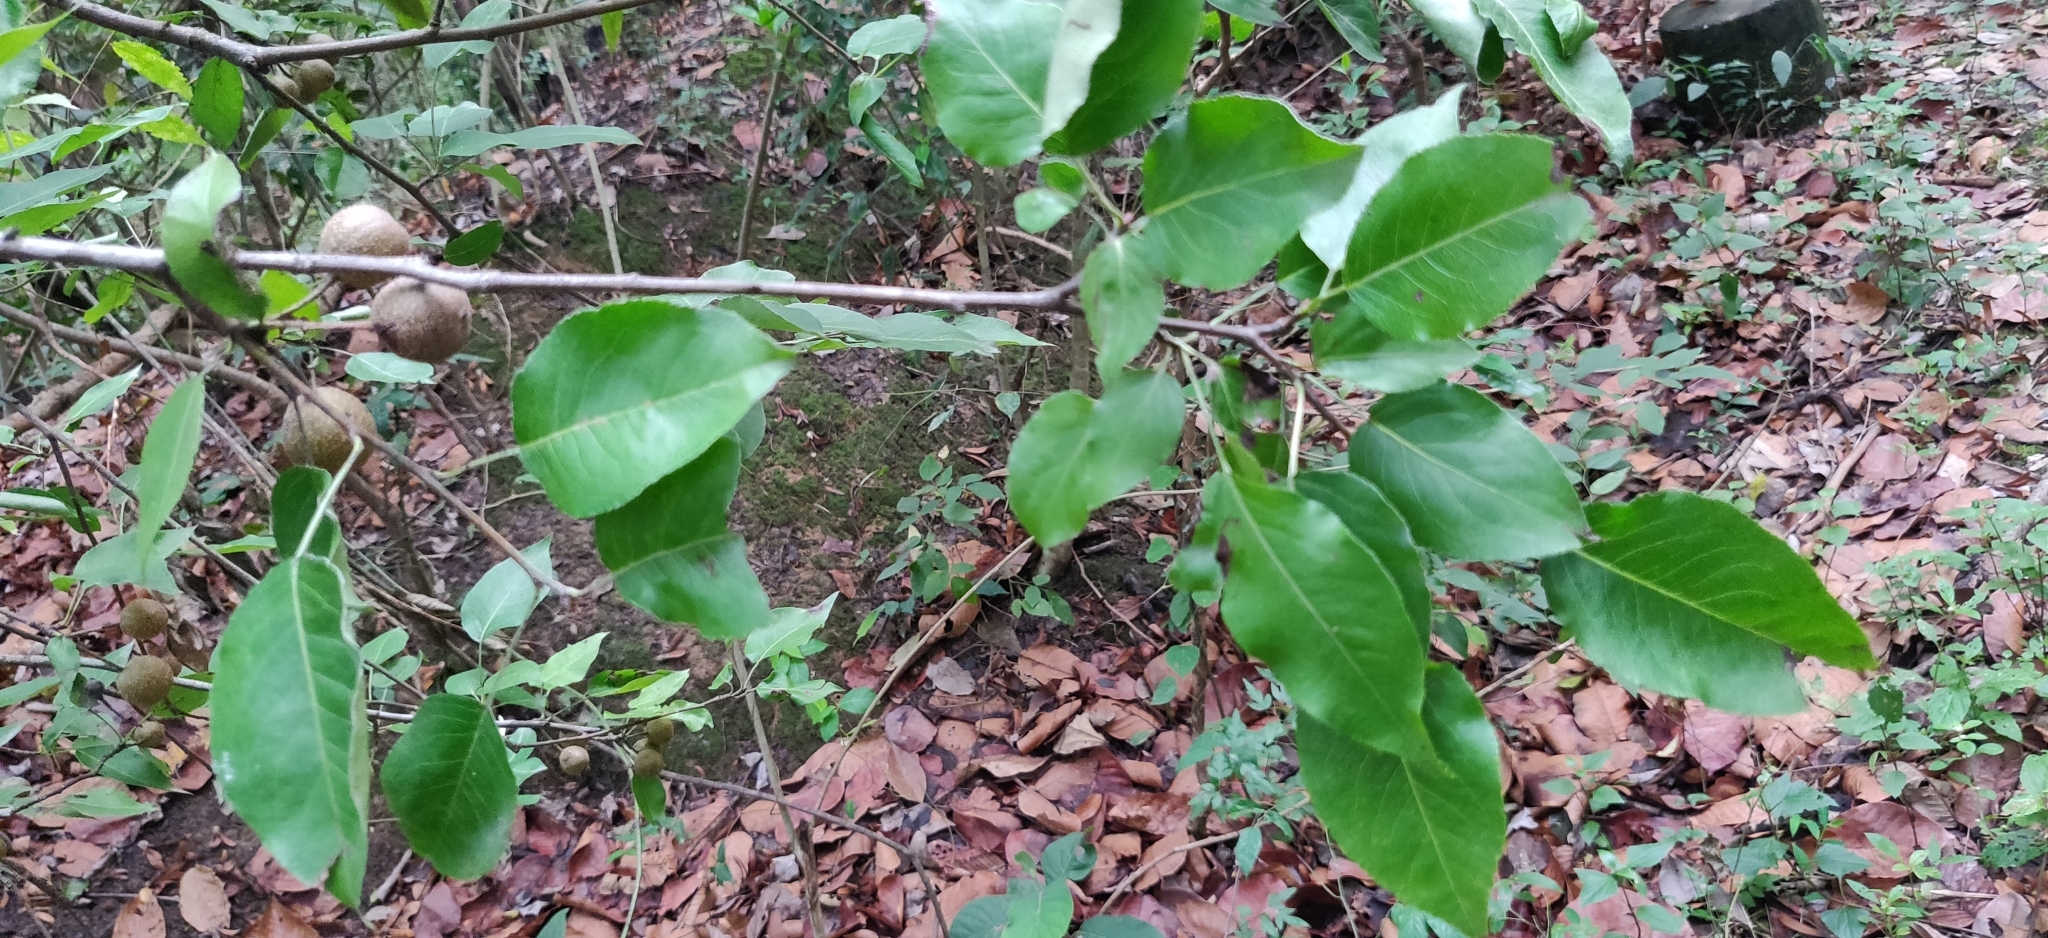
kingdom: Plantae
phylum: Tracheophyta
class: Magnoliopsida
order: Rosales
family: Rosaceae
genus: Pyrus
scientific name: Pyrus pashia
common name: Himalayan pear
